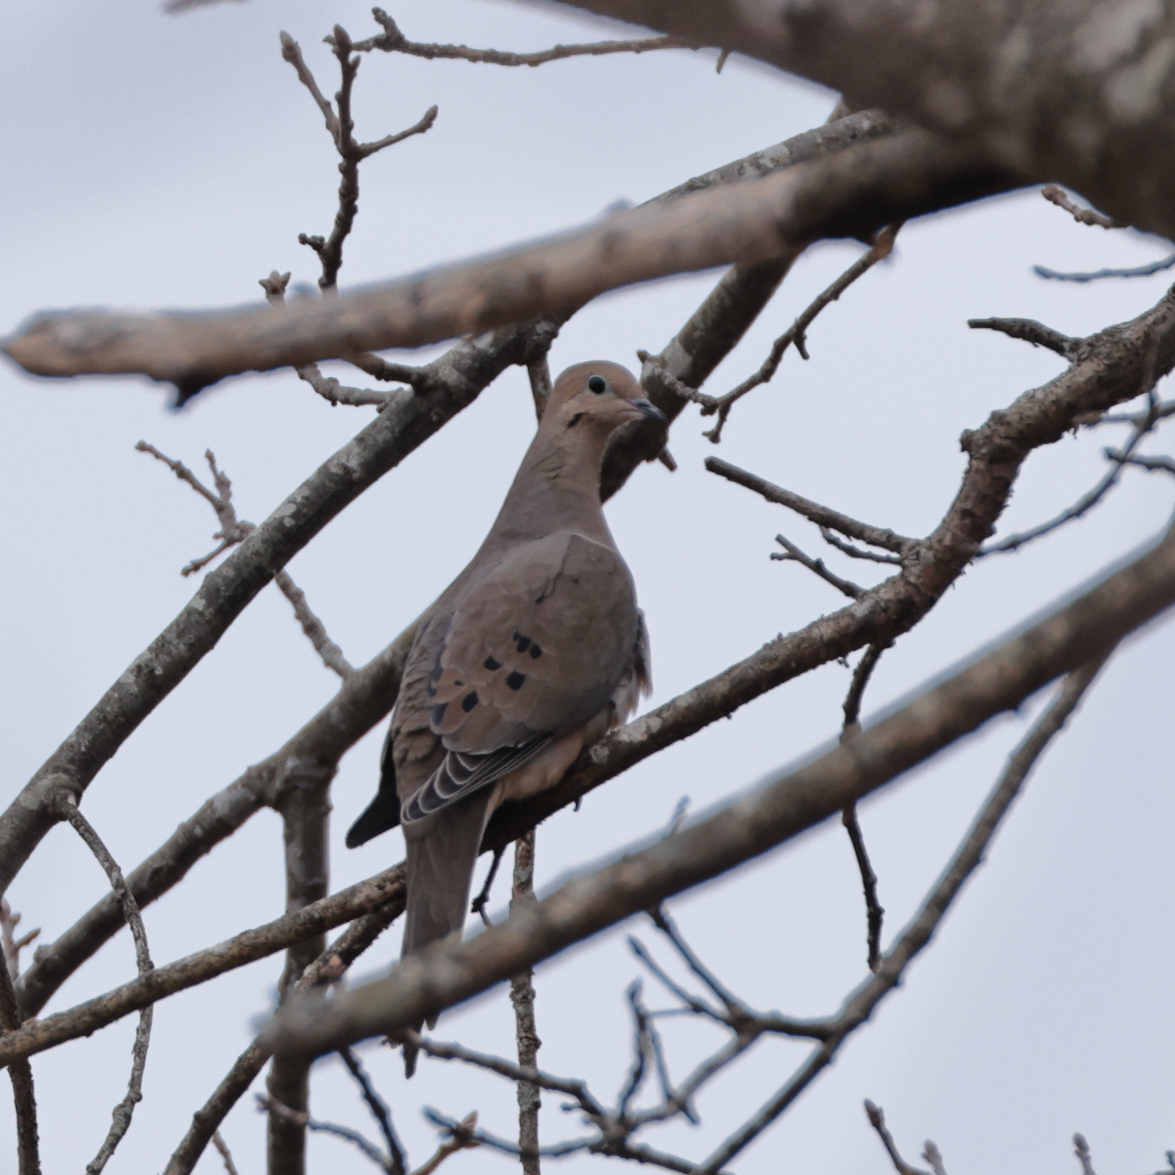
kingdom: Animalia
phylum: Chordata
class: Aves
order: Columbiformes
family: Columbidae
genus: Zenaida
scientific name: Zenaida macroura
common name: Mourning dove
